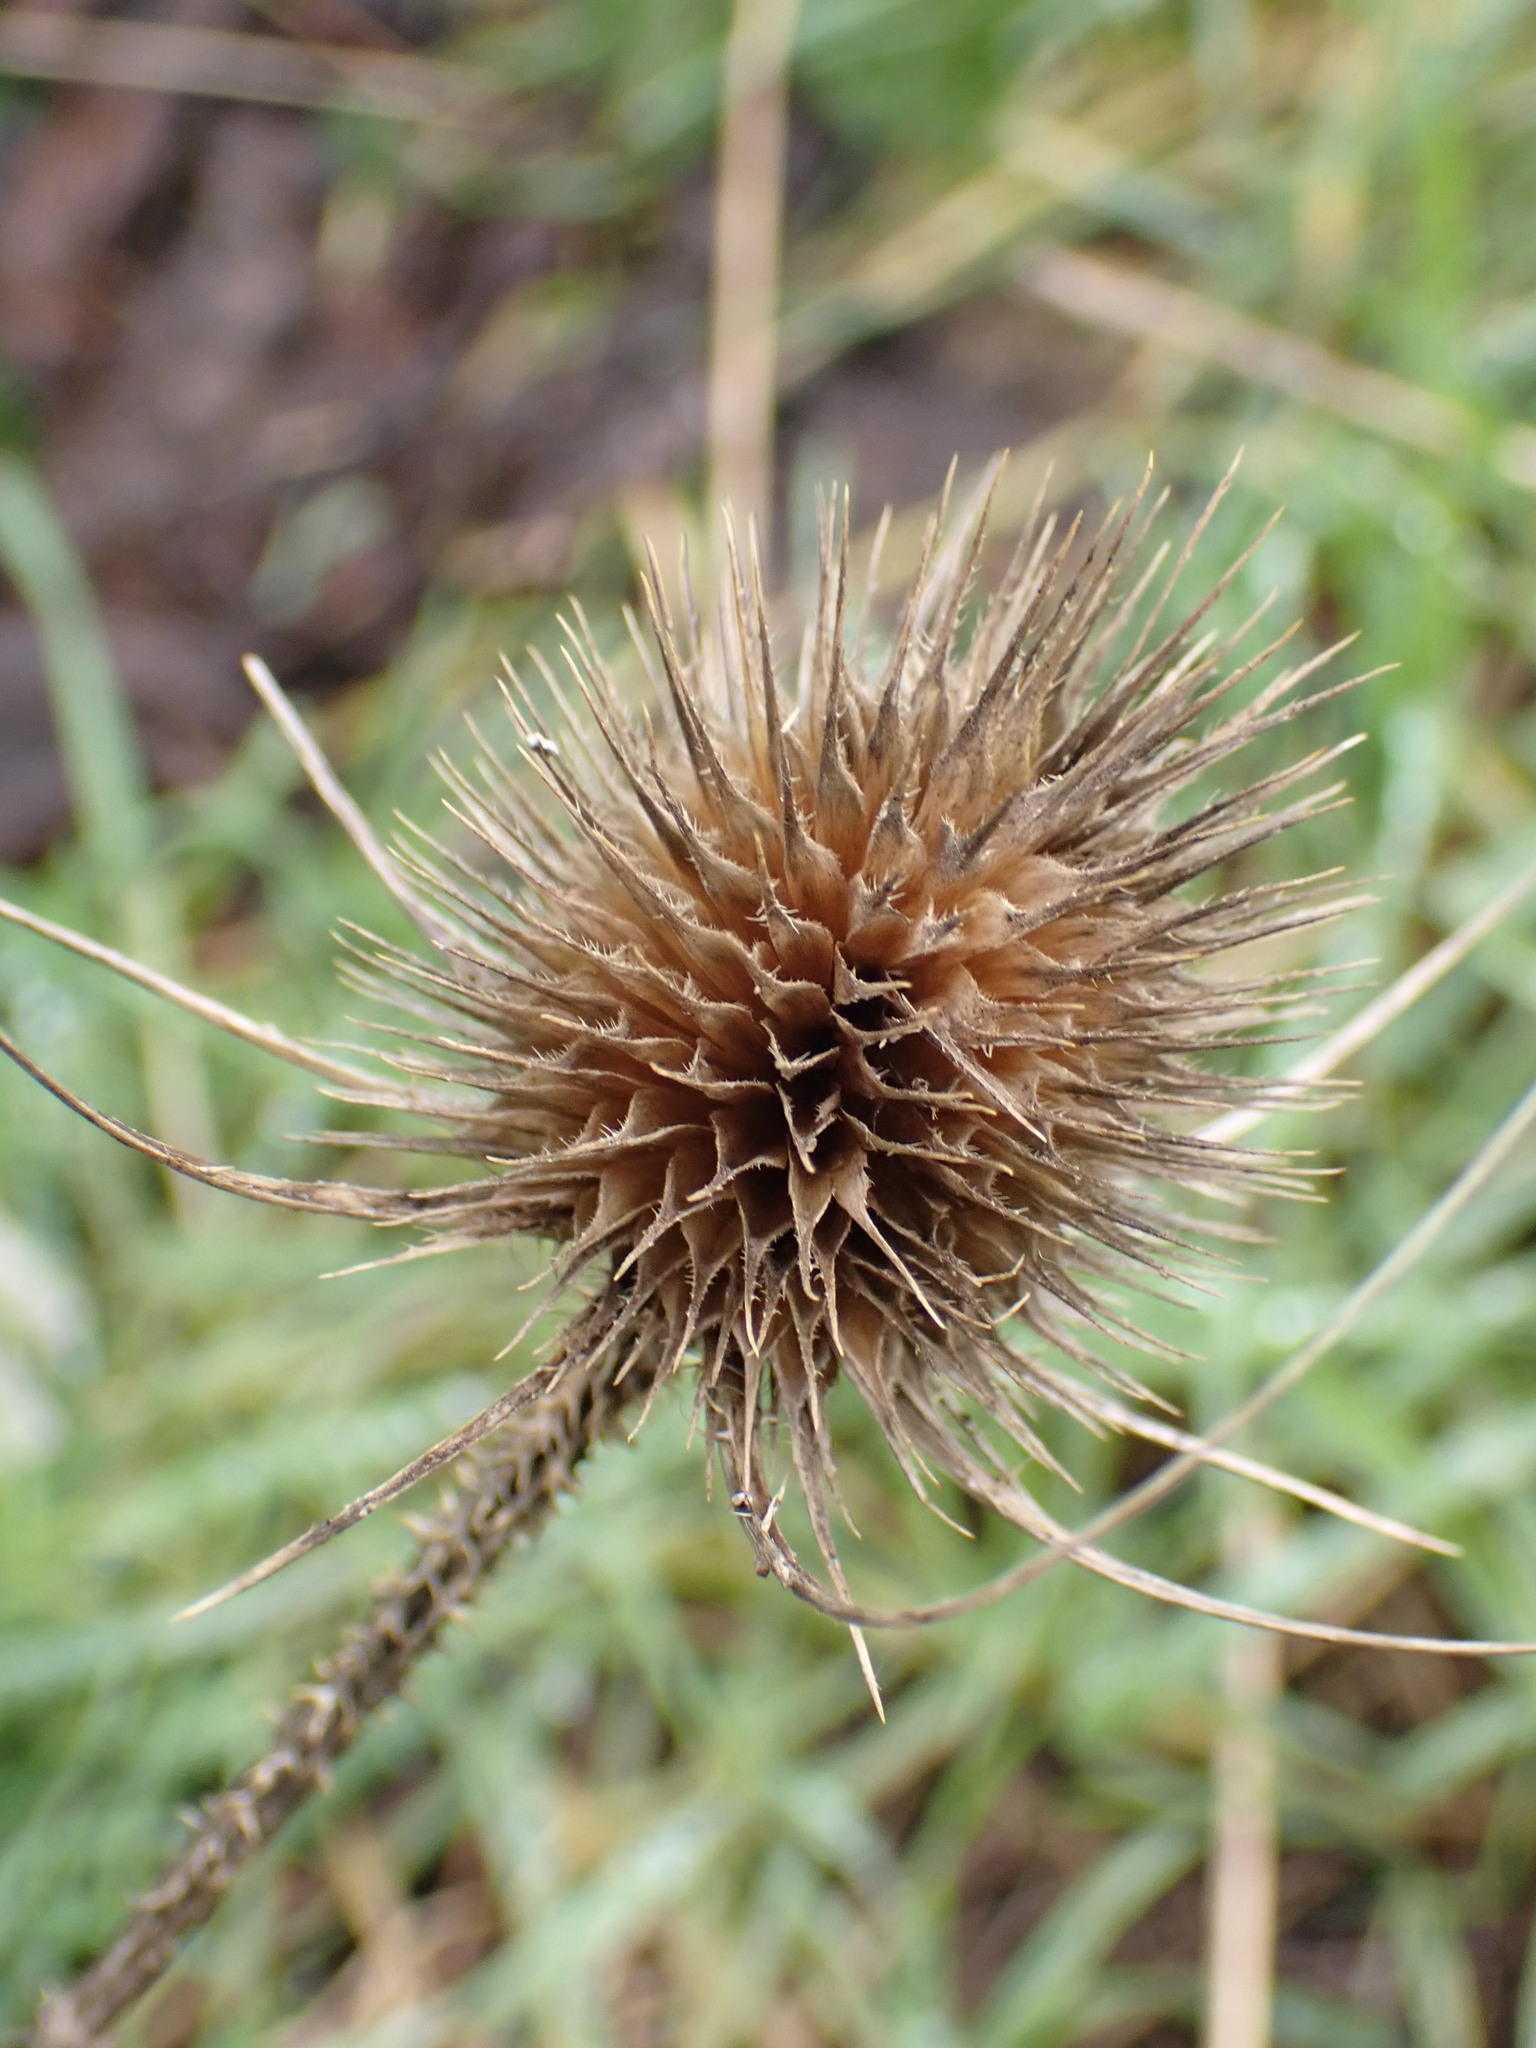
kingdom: Plantae
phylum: Tracheophyta
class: Magnoliopsida
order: Dipsacales
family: Caprifoliaceae
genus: Dipsacus
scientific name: Dipsacus fullonum
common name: Teasel
